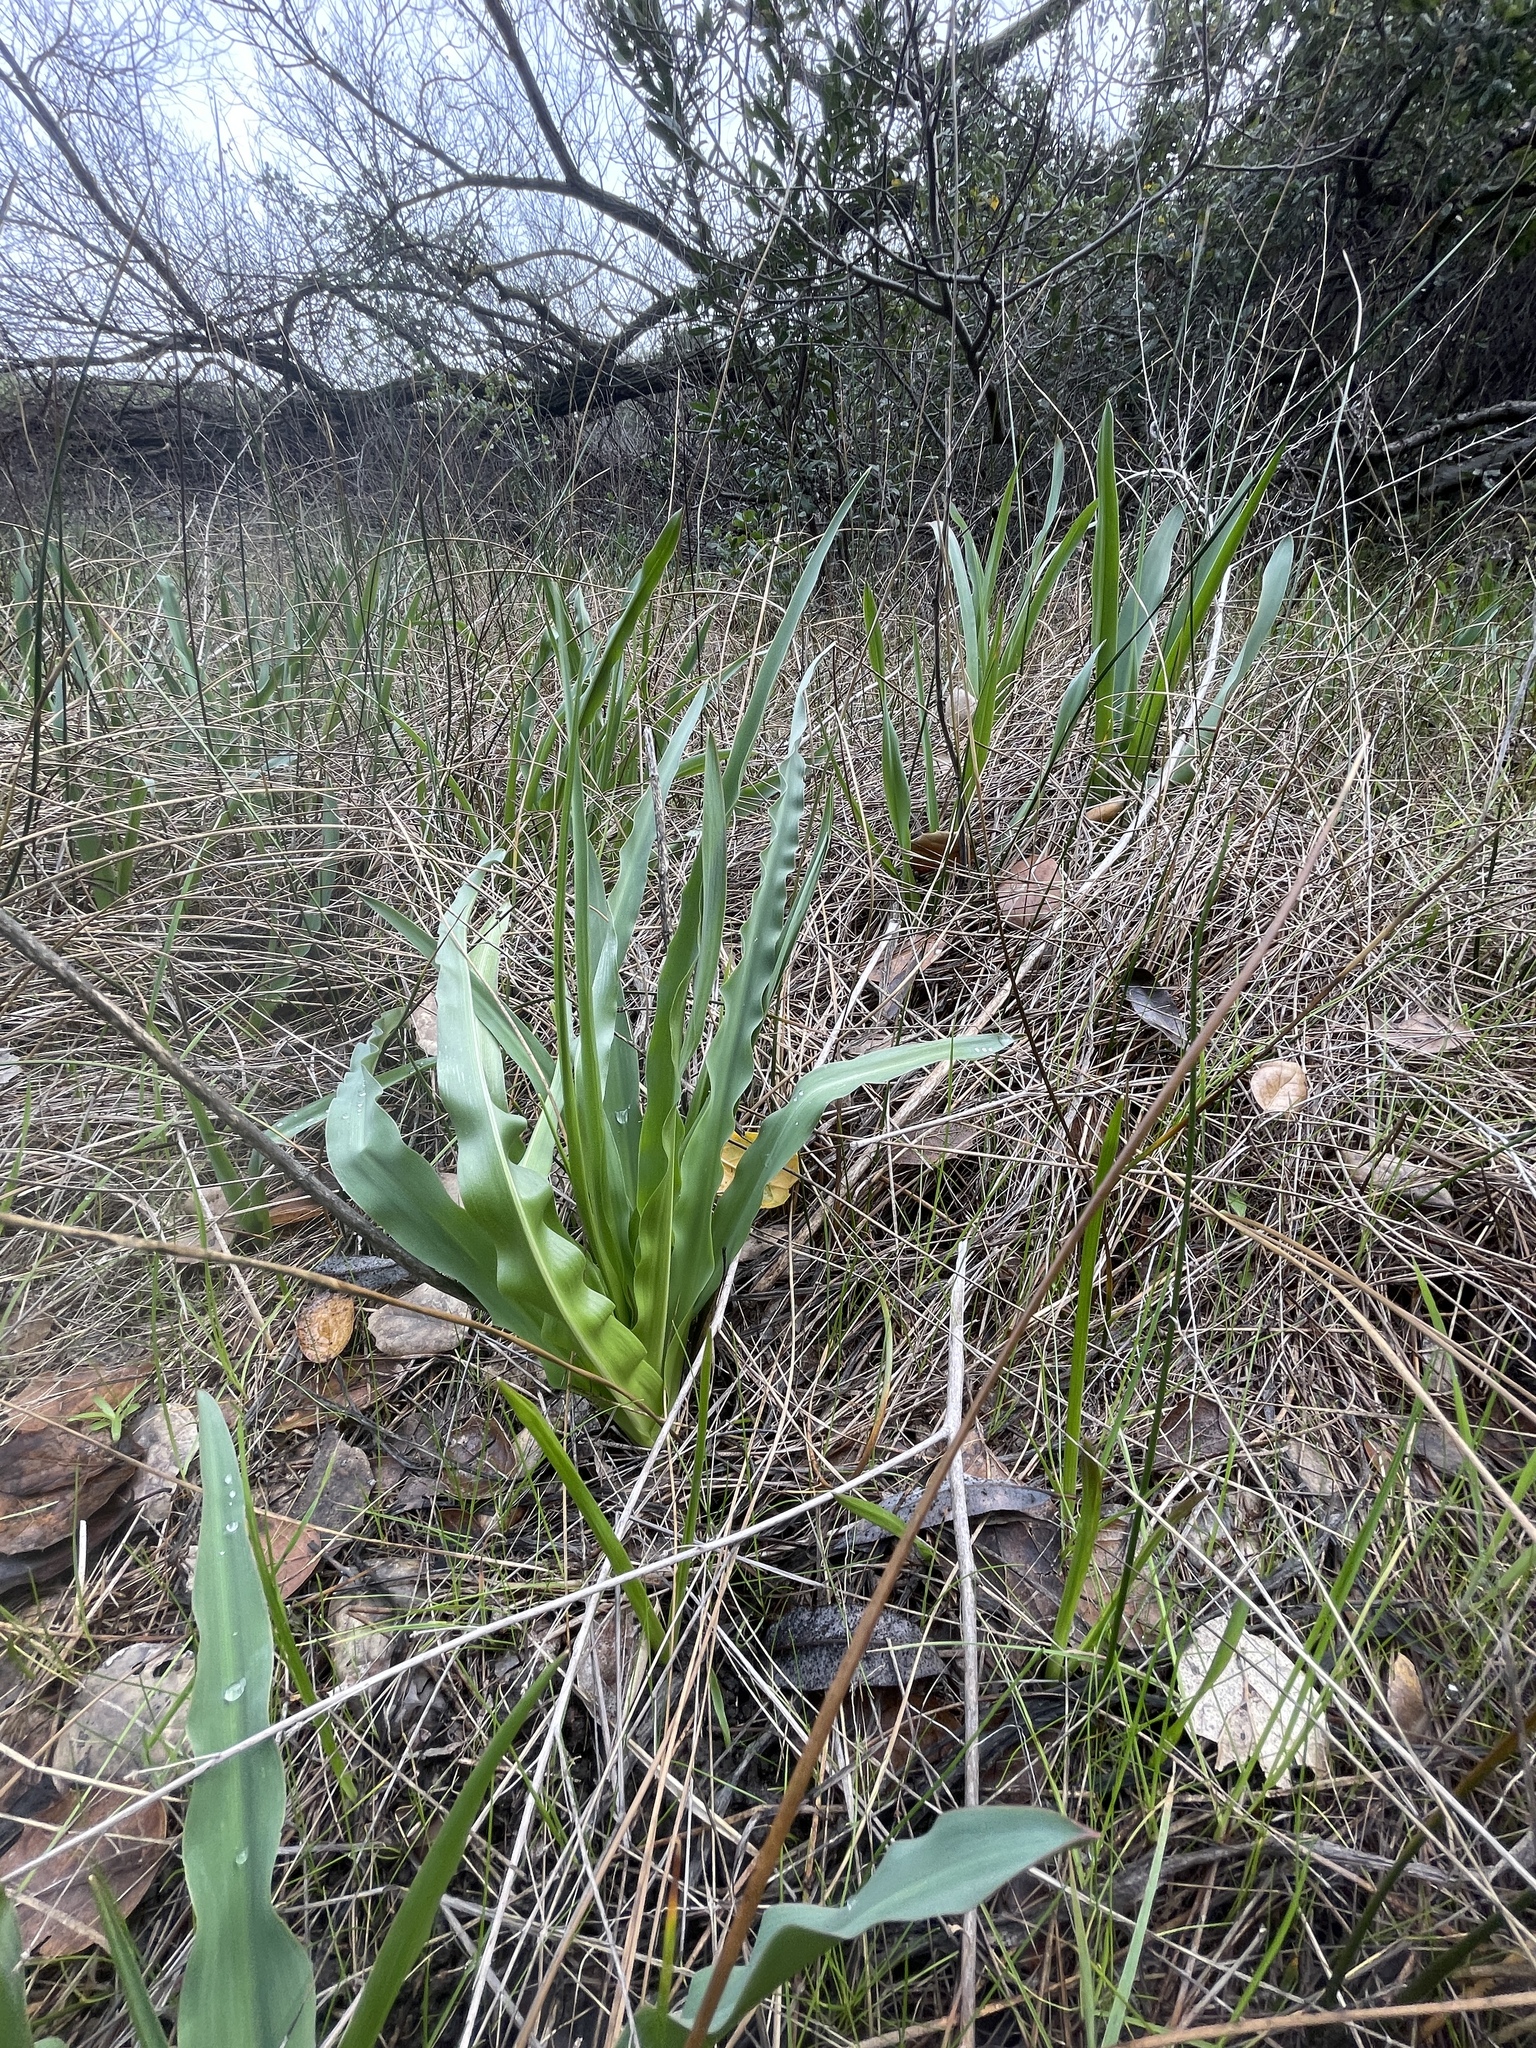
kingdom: Plantae
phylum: Tracheophyta
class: Liliopsida
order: Asparagales
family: Asparagaceae
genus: Chlorogalum
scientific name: Chlorogalum pomeridianum
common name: Amole
